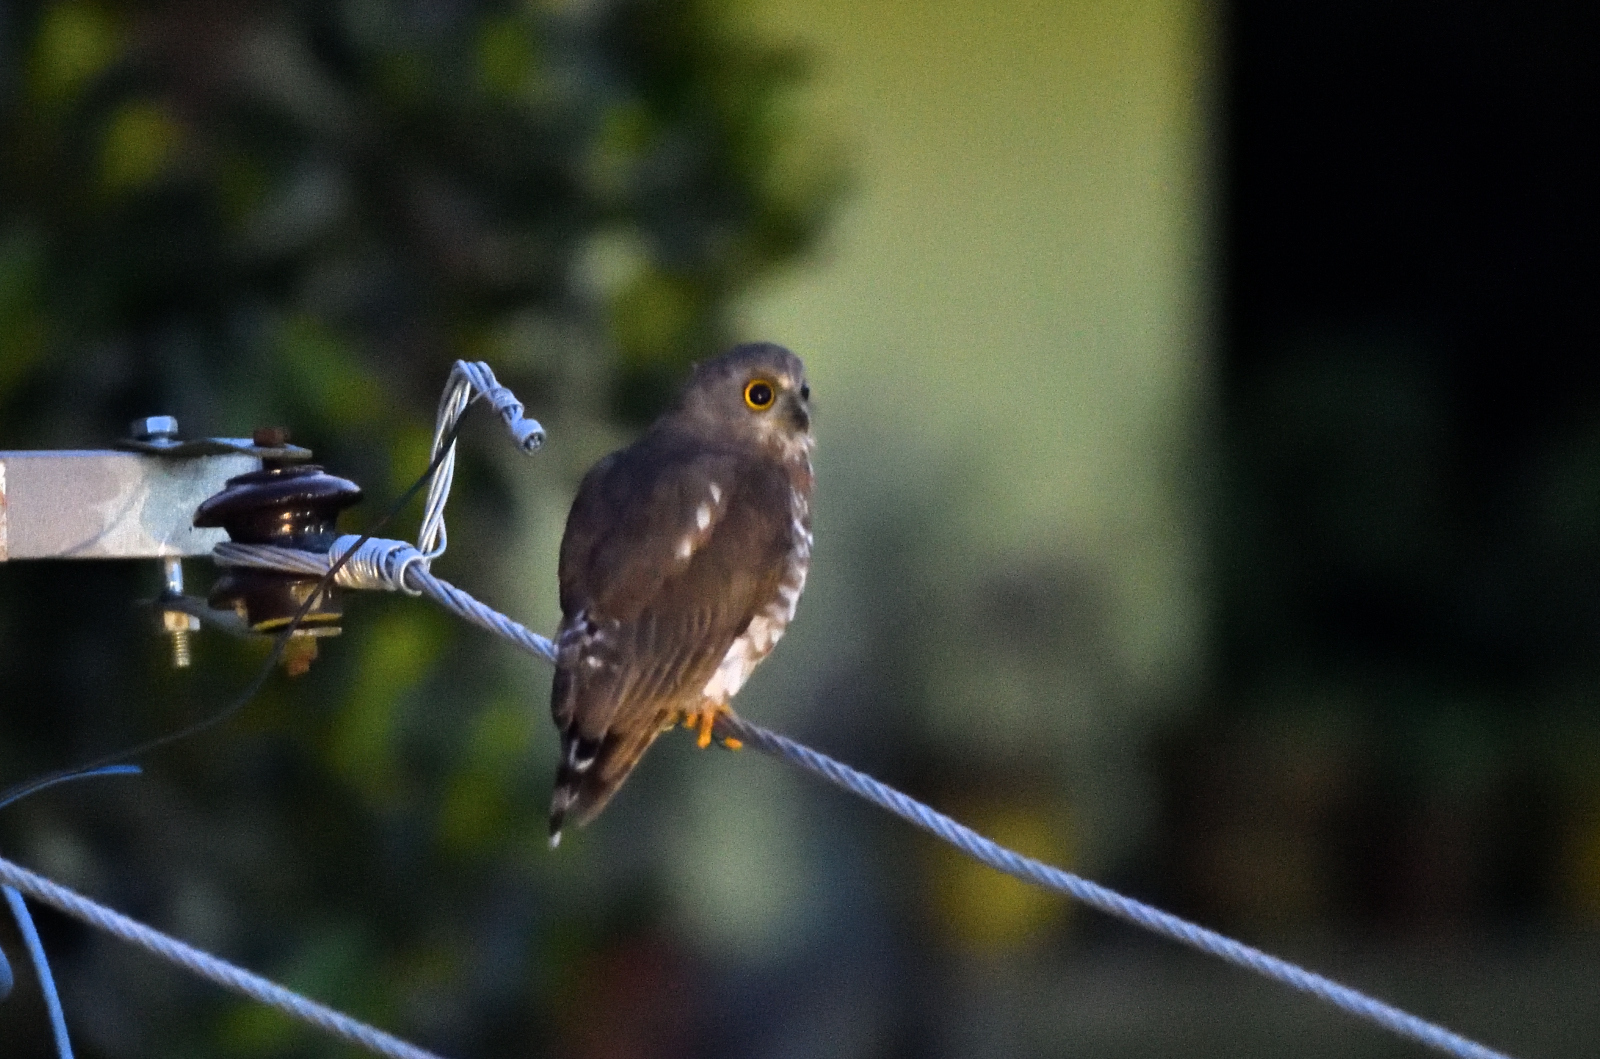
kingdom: Animalia
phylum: Chordata
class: Aves
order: Strigiformes
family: Strigidae
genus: Ninox
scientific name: Ninox scutulata
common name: Brown hawk-owl
